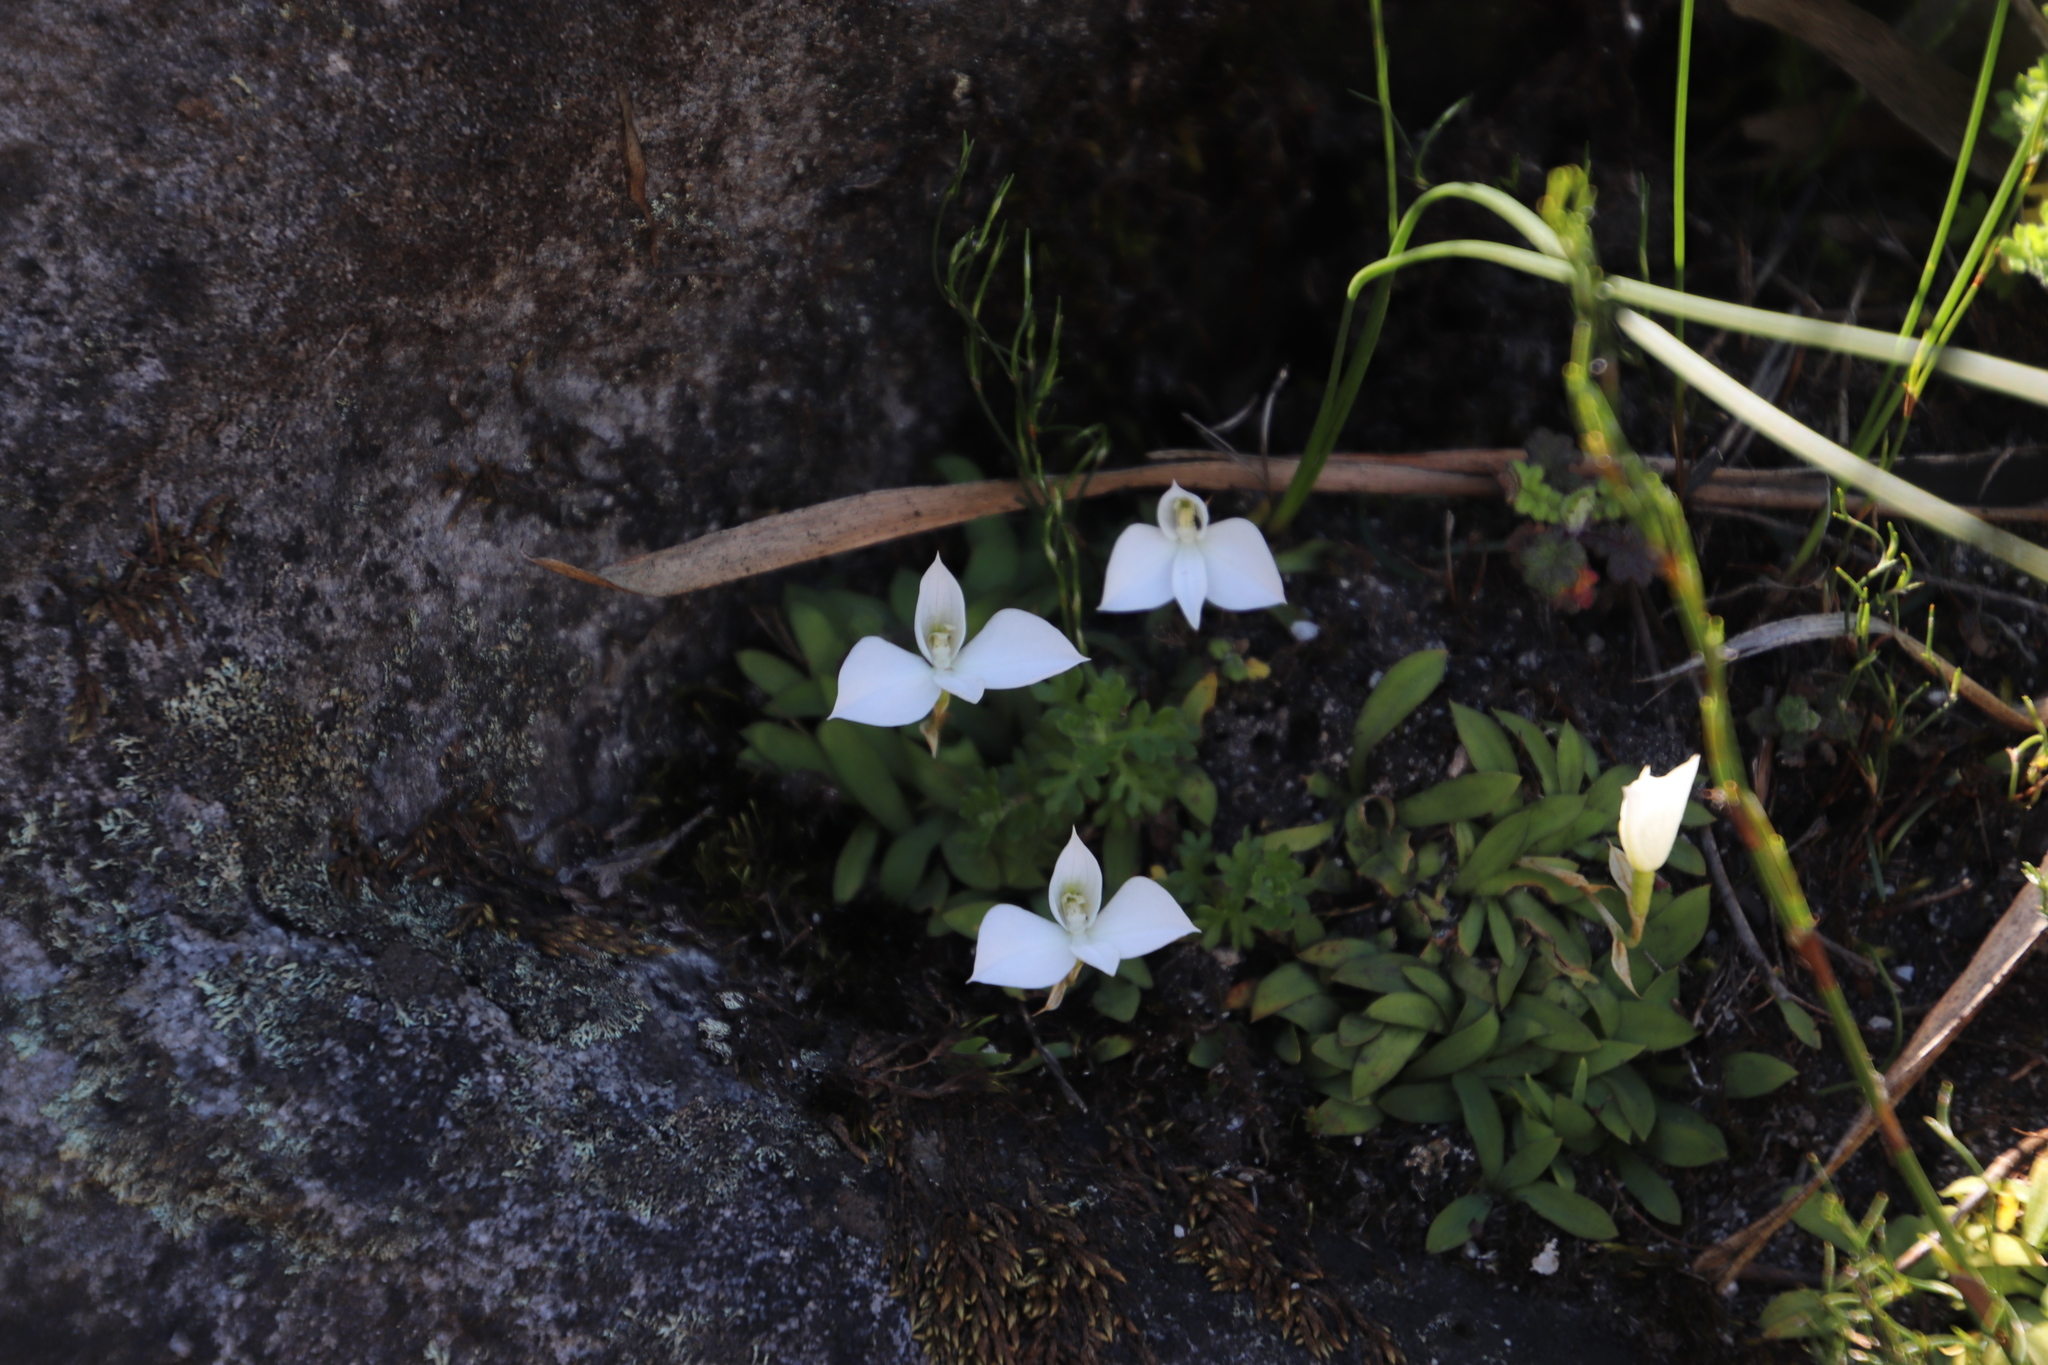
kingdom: Plantae
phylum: Tracheophyta
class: Liliopsida
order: Asparagales
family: Orchidaceae
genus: Disa
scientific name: Disa virginalis
